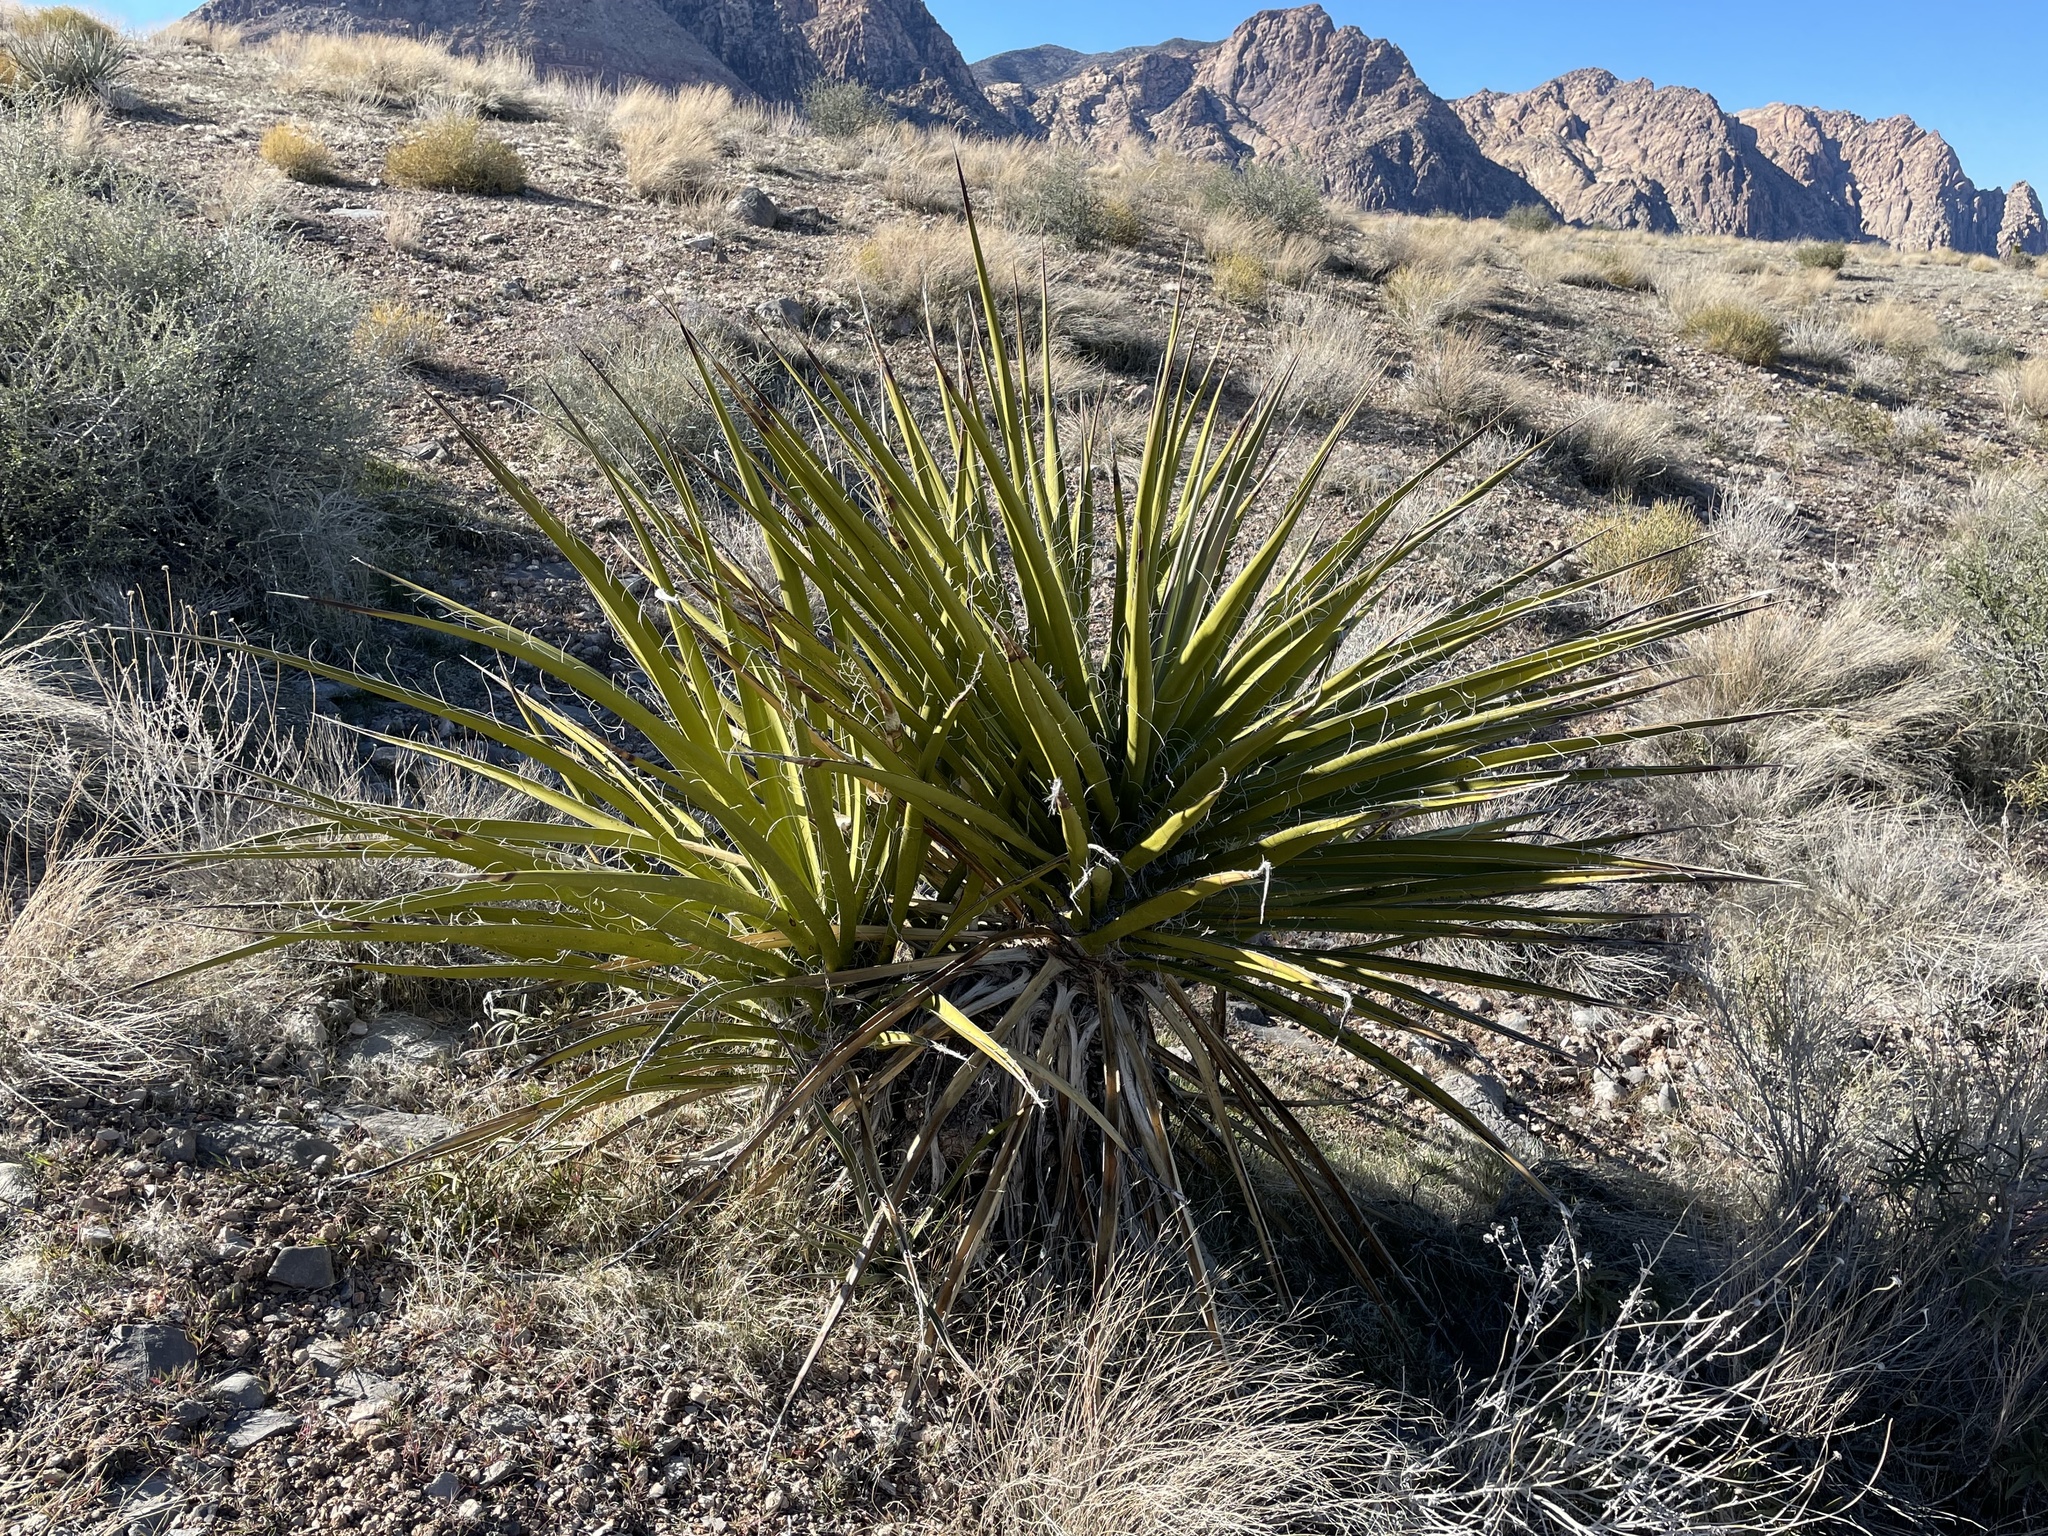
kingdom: Plantae
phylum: Tracheophyta
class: Liliopsida
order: Asparagales
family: Asparagaceae
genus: Yucca
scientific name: Yucca schidigera
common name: Mojave yucca
